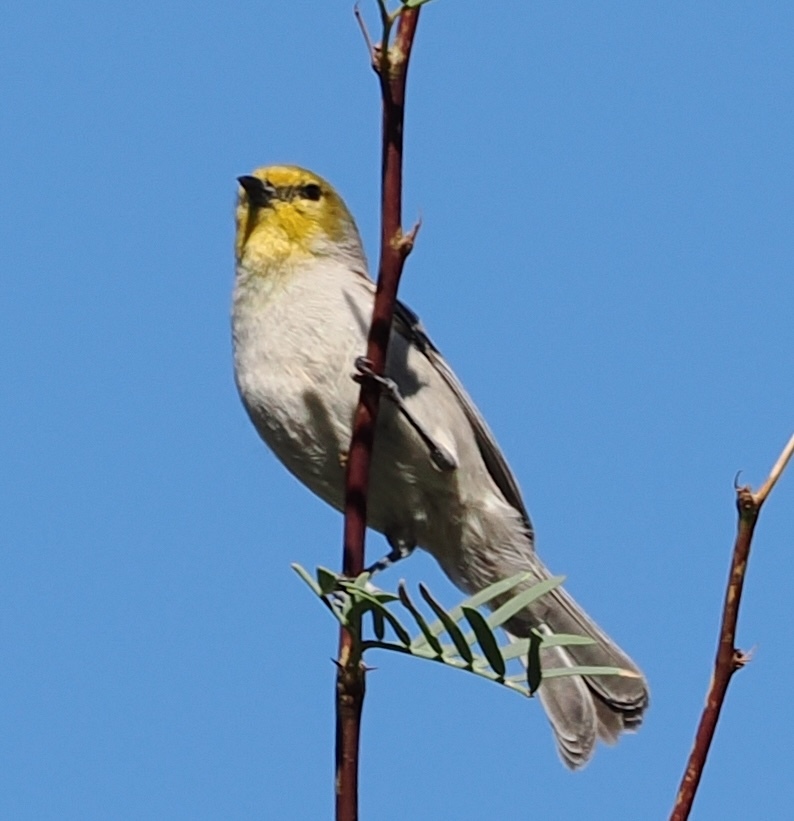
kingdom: Animalia
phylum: Chordata
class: Aves
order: Passeriformes
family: Remizidae
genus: Auriparus
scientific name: Auriparus flaviceps
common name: Verdin
